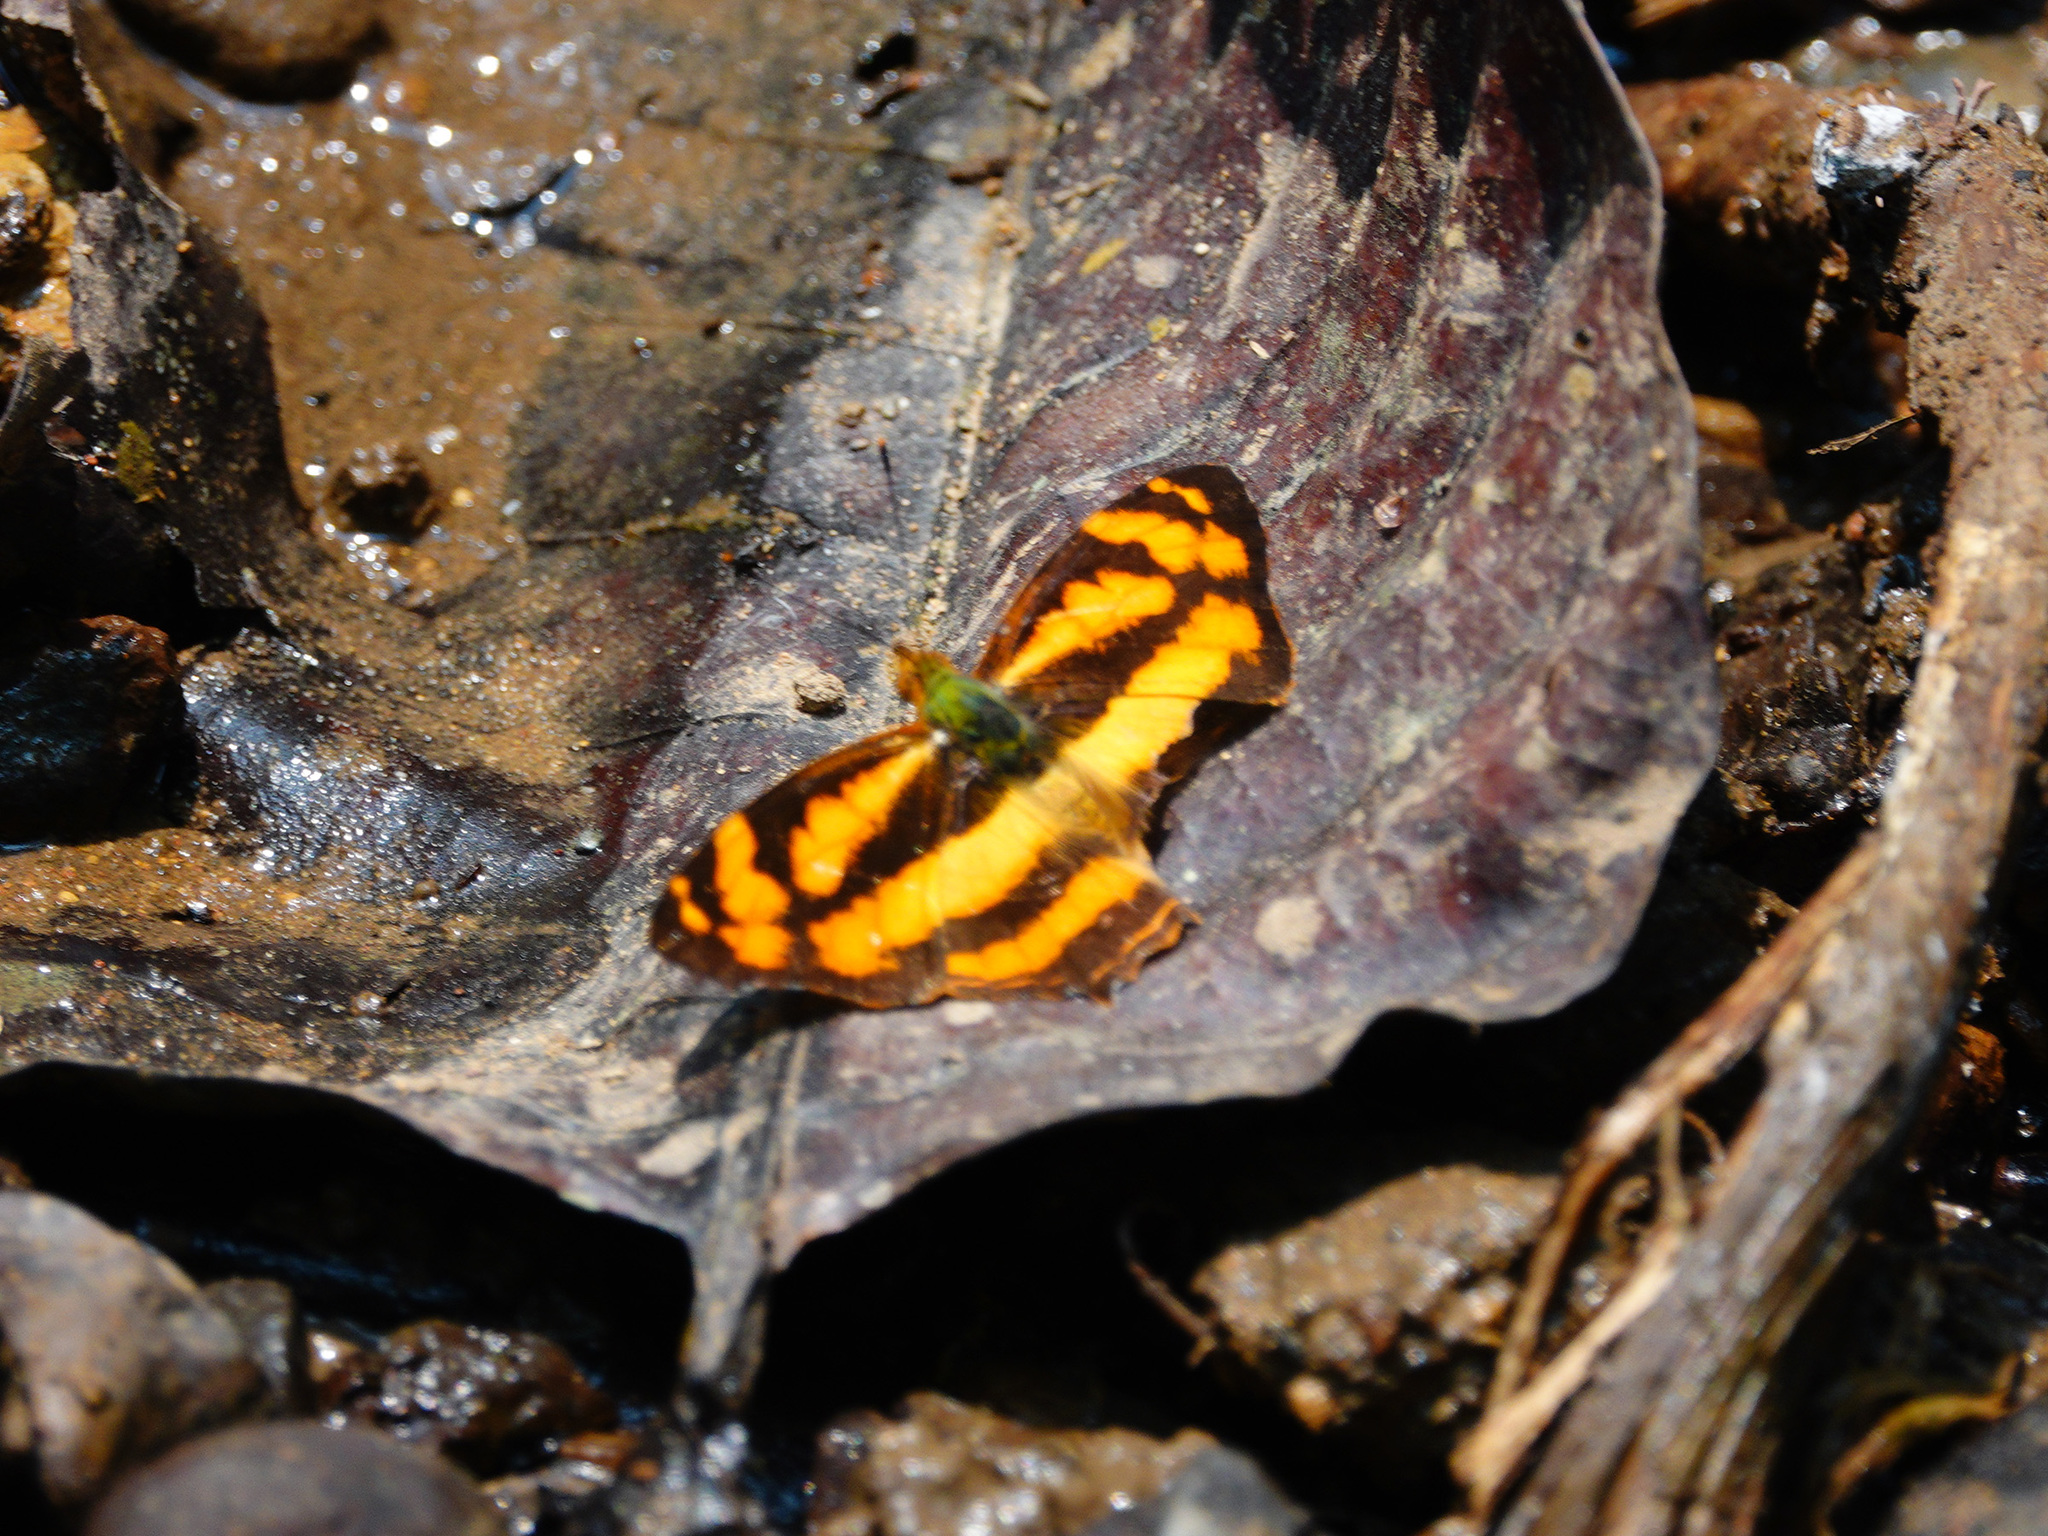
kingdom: Animalia
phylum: Arthropoda
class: Insecta
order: Lepidoptera
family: Nymphalidae
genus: Symbrenthia
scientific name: Symbrenthia hypselis
